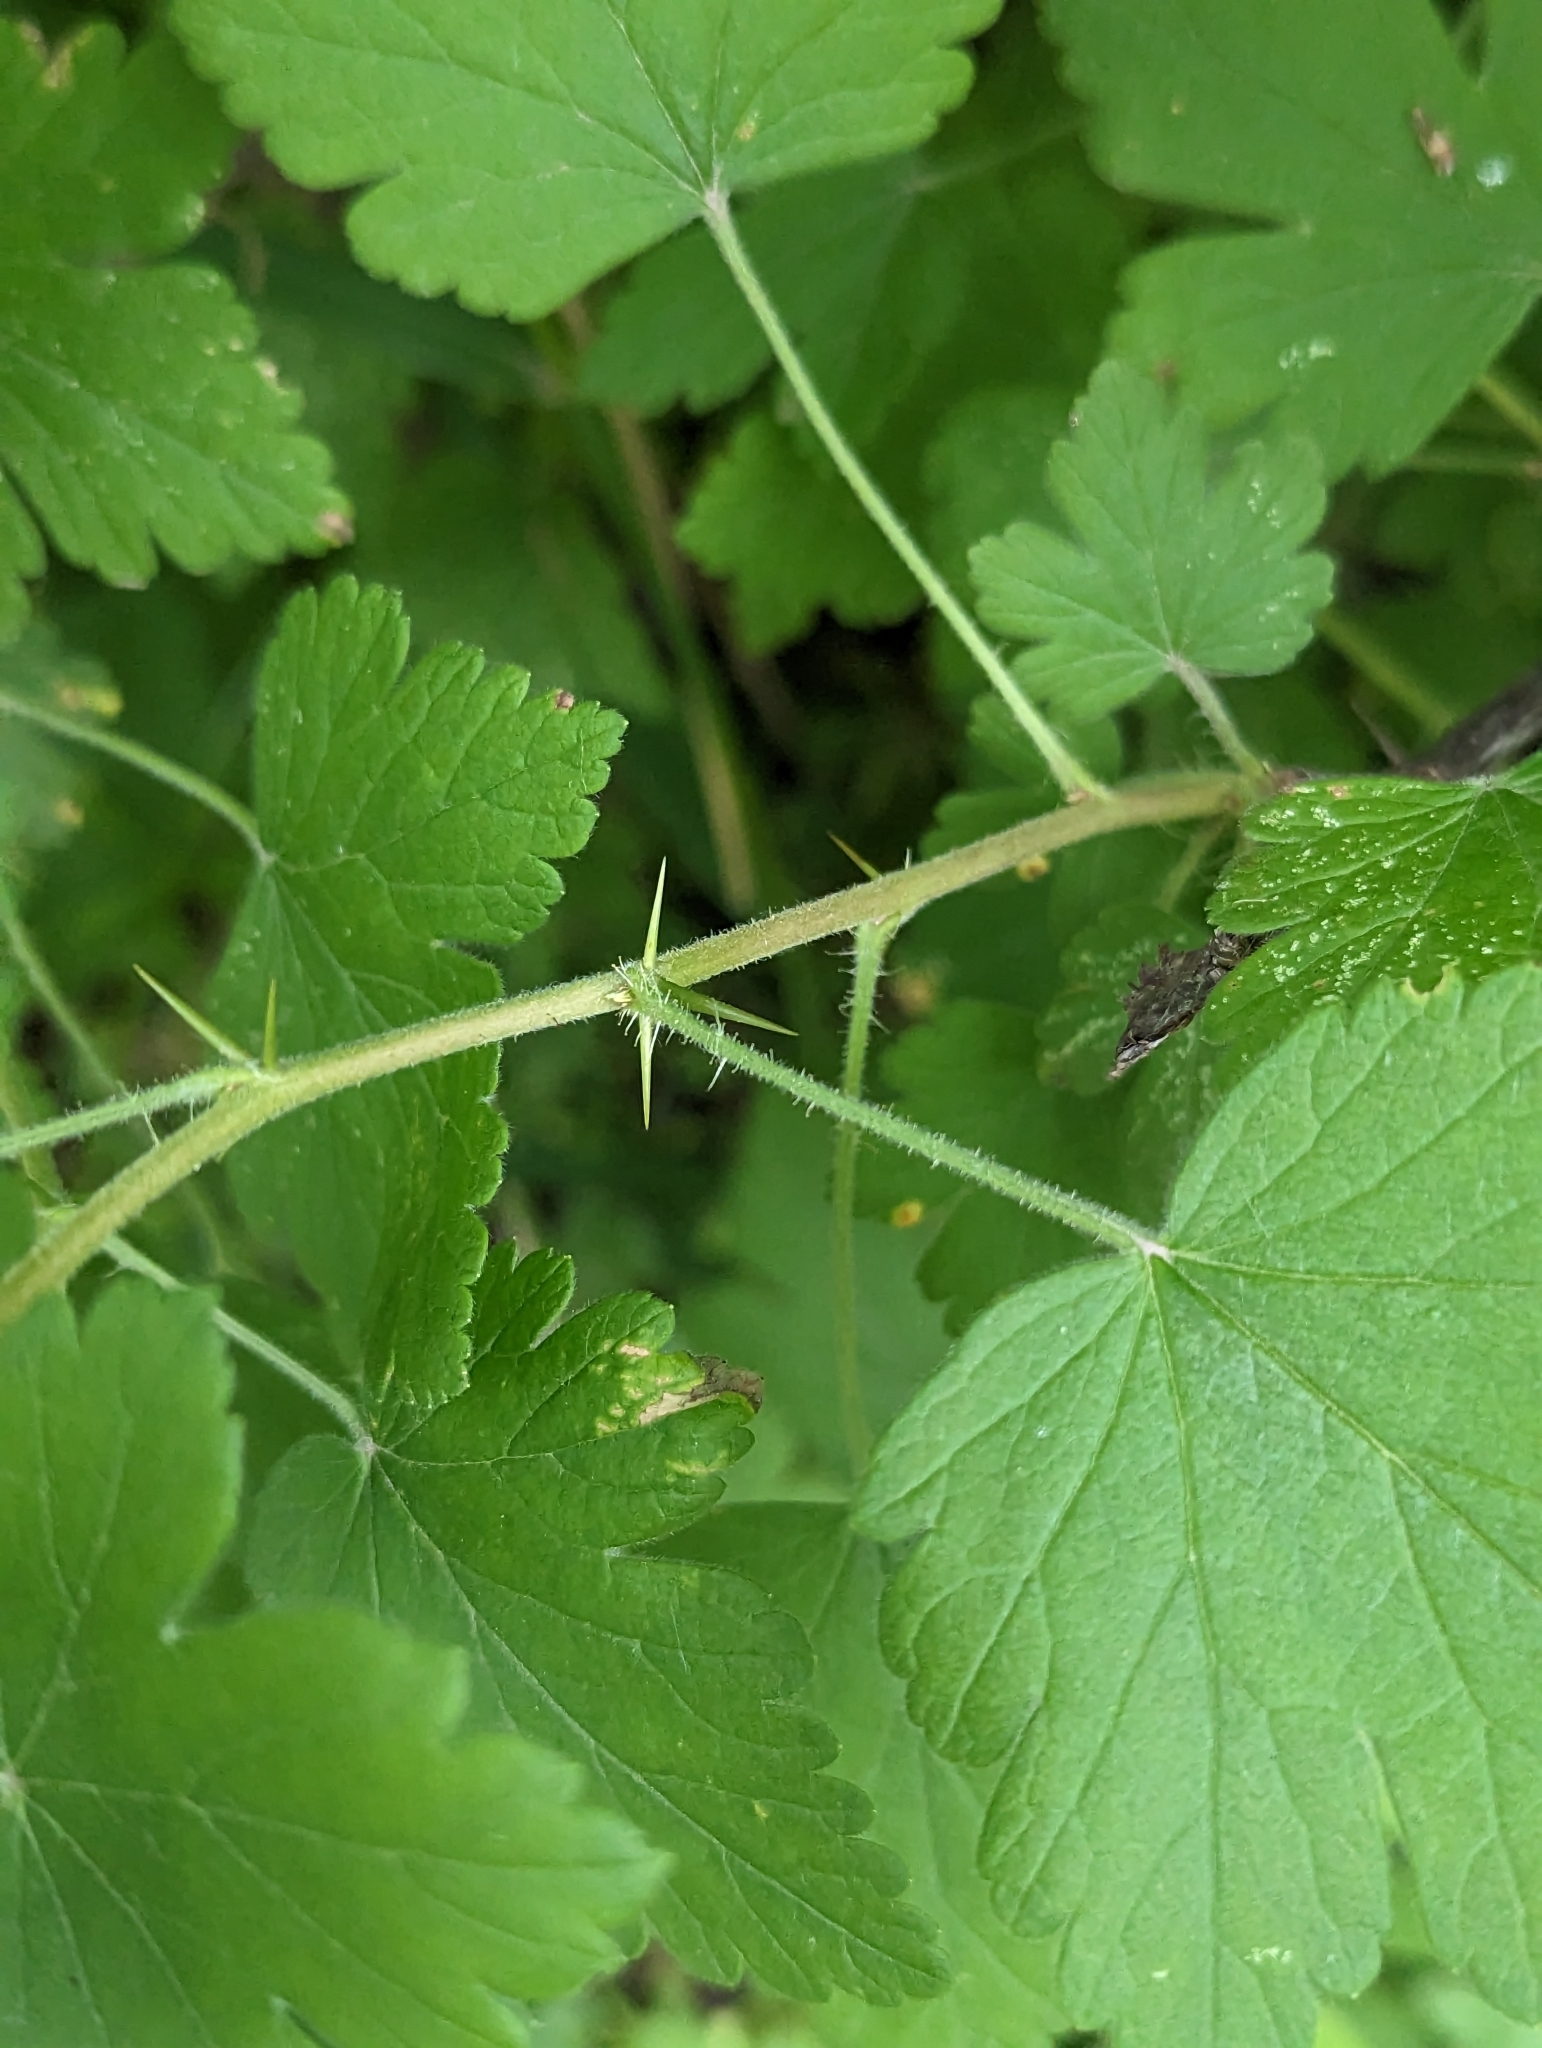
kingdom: Plantae
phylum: Tracheophyta
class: Magnoliopsida
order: Saxifragales
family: Grossulariaceae
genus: Ribes
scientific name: Ribes cynosbati
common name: American gooseberry
